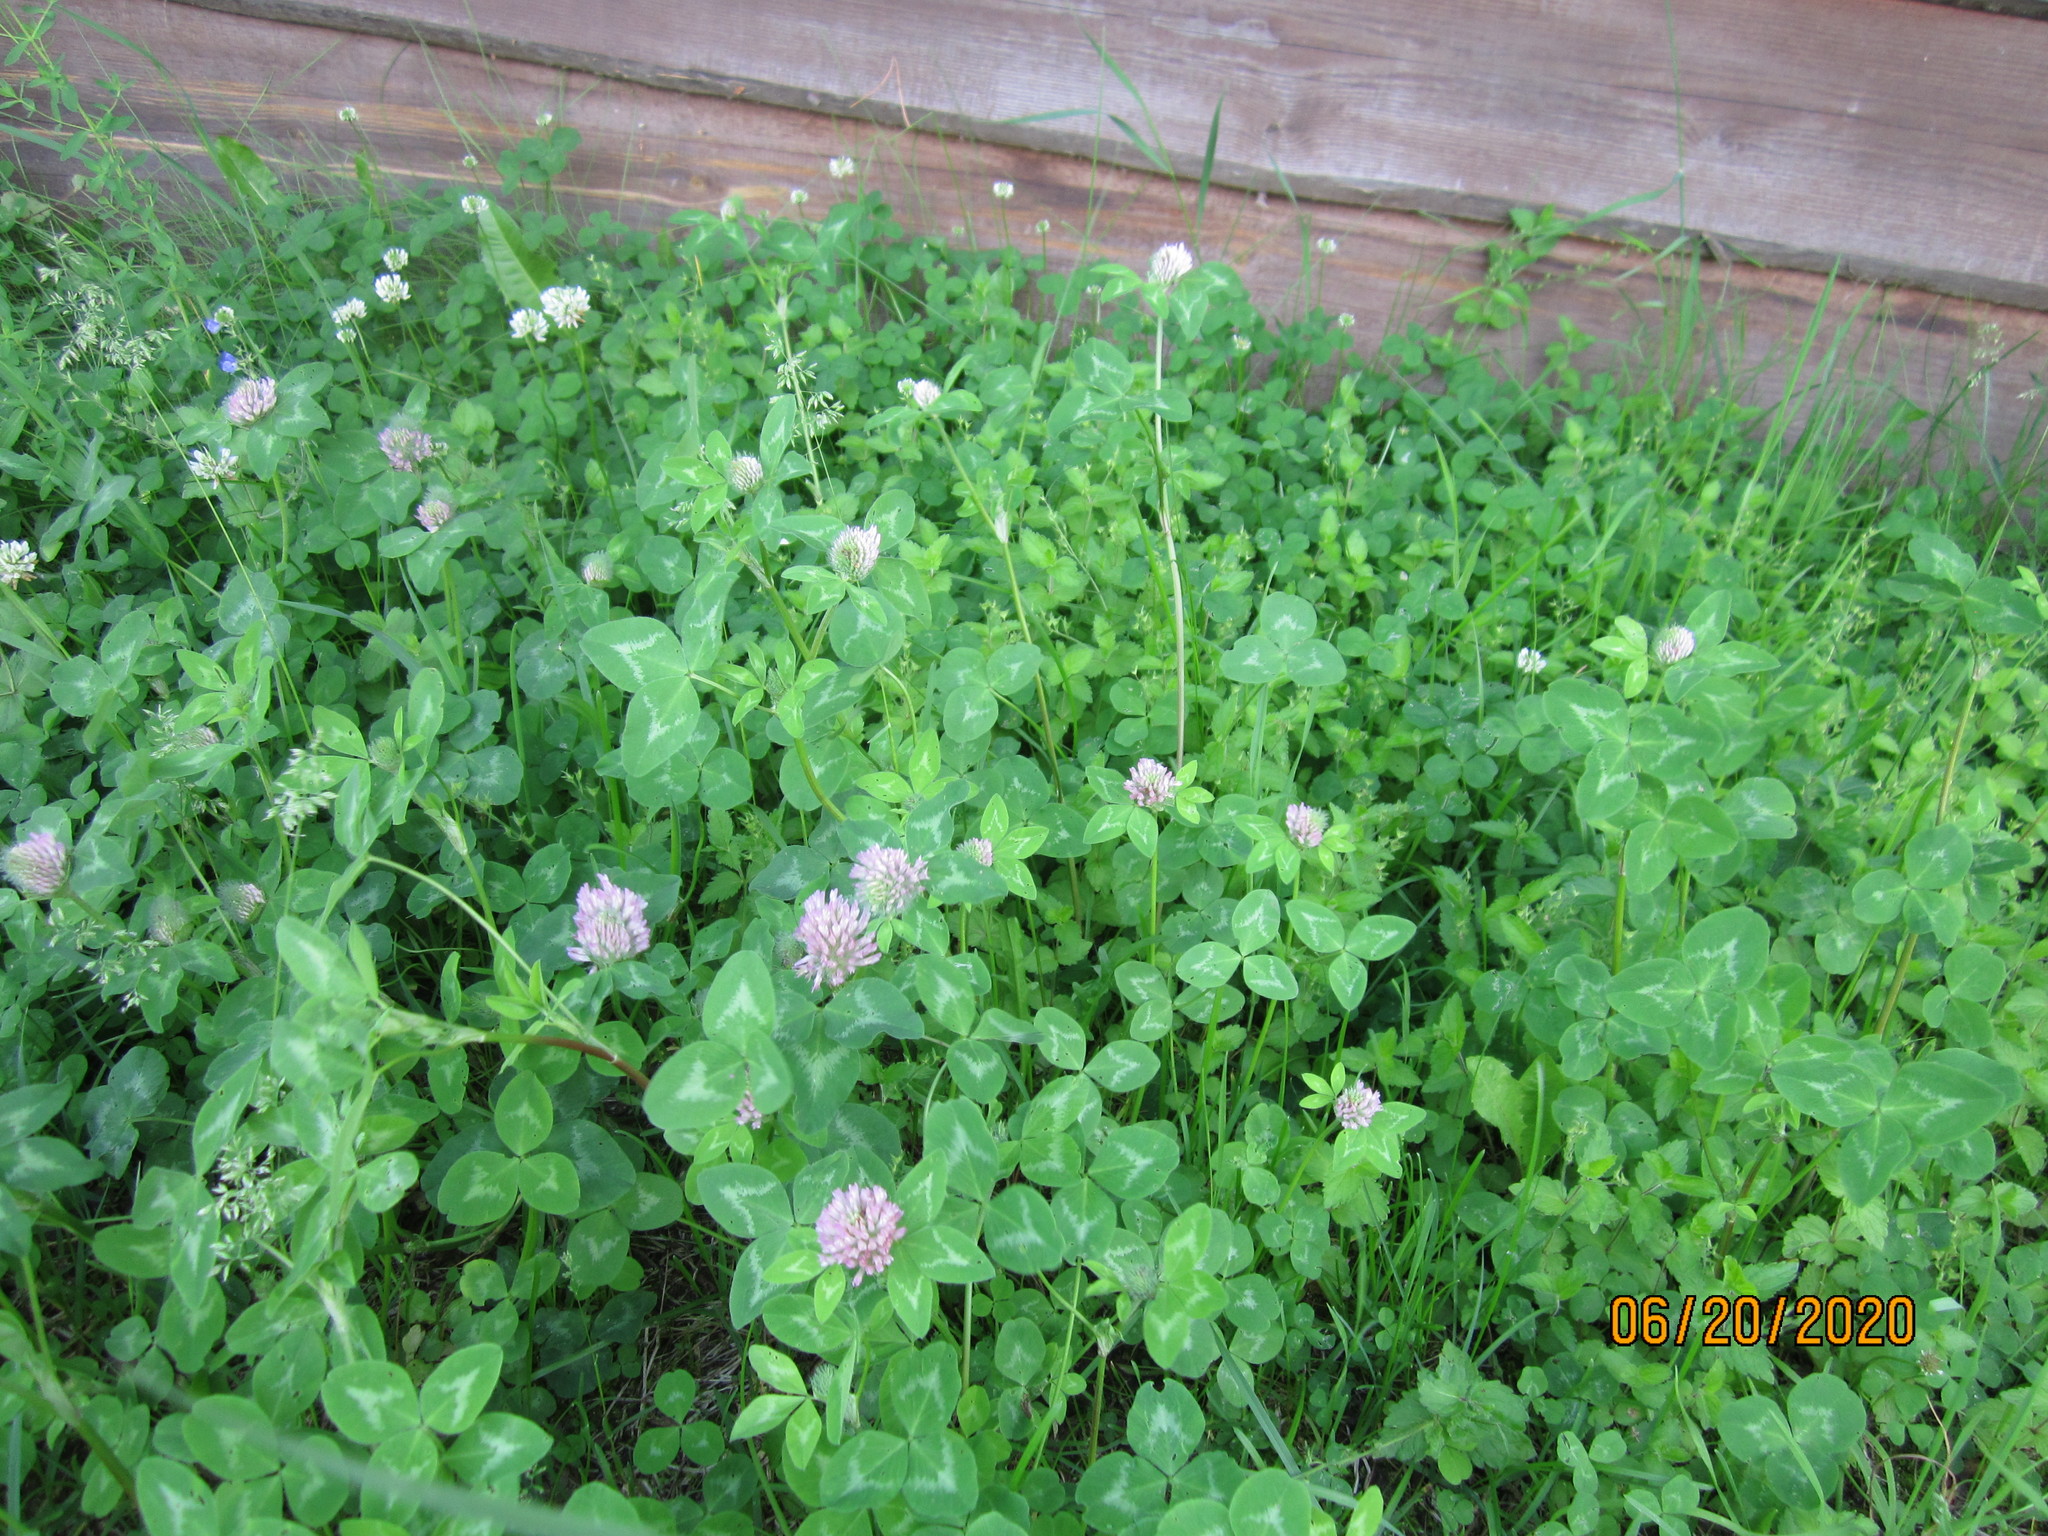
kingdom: Plantae
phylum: Tracheophyta
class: Magnoliopsida
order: Fabales
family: Fabaceae
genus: Trifolium
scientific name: Trifolium pratense
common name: Red clover
